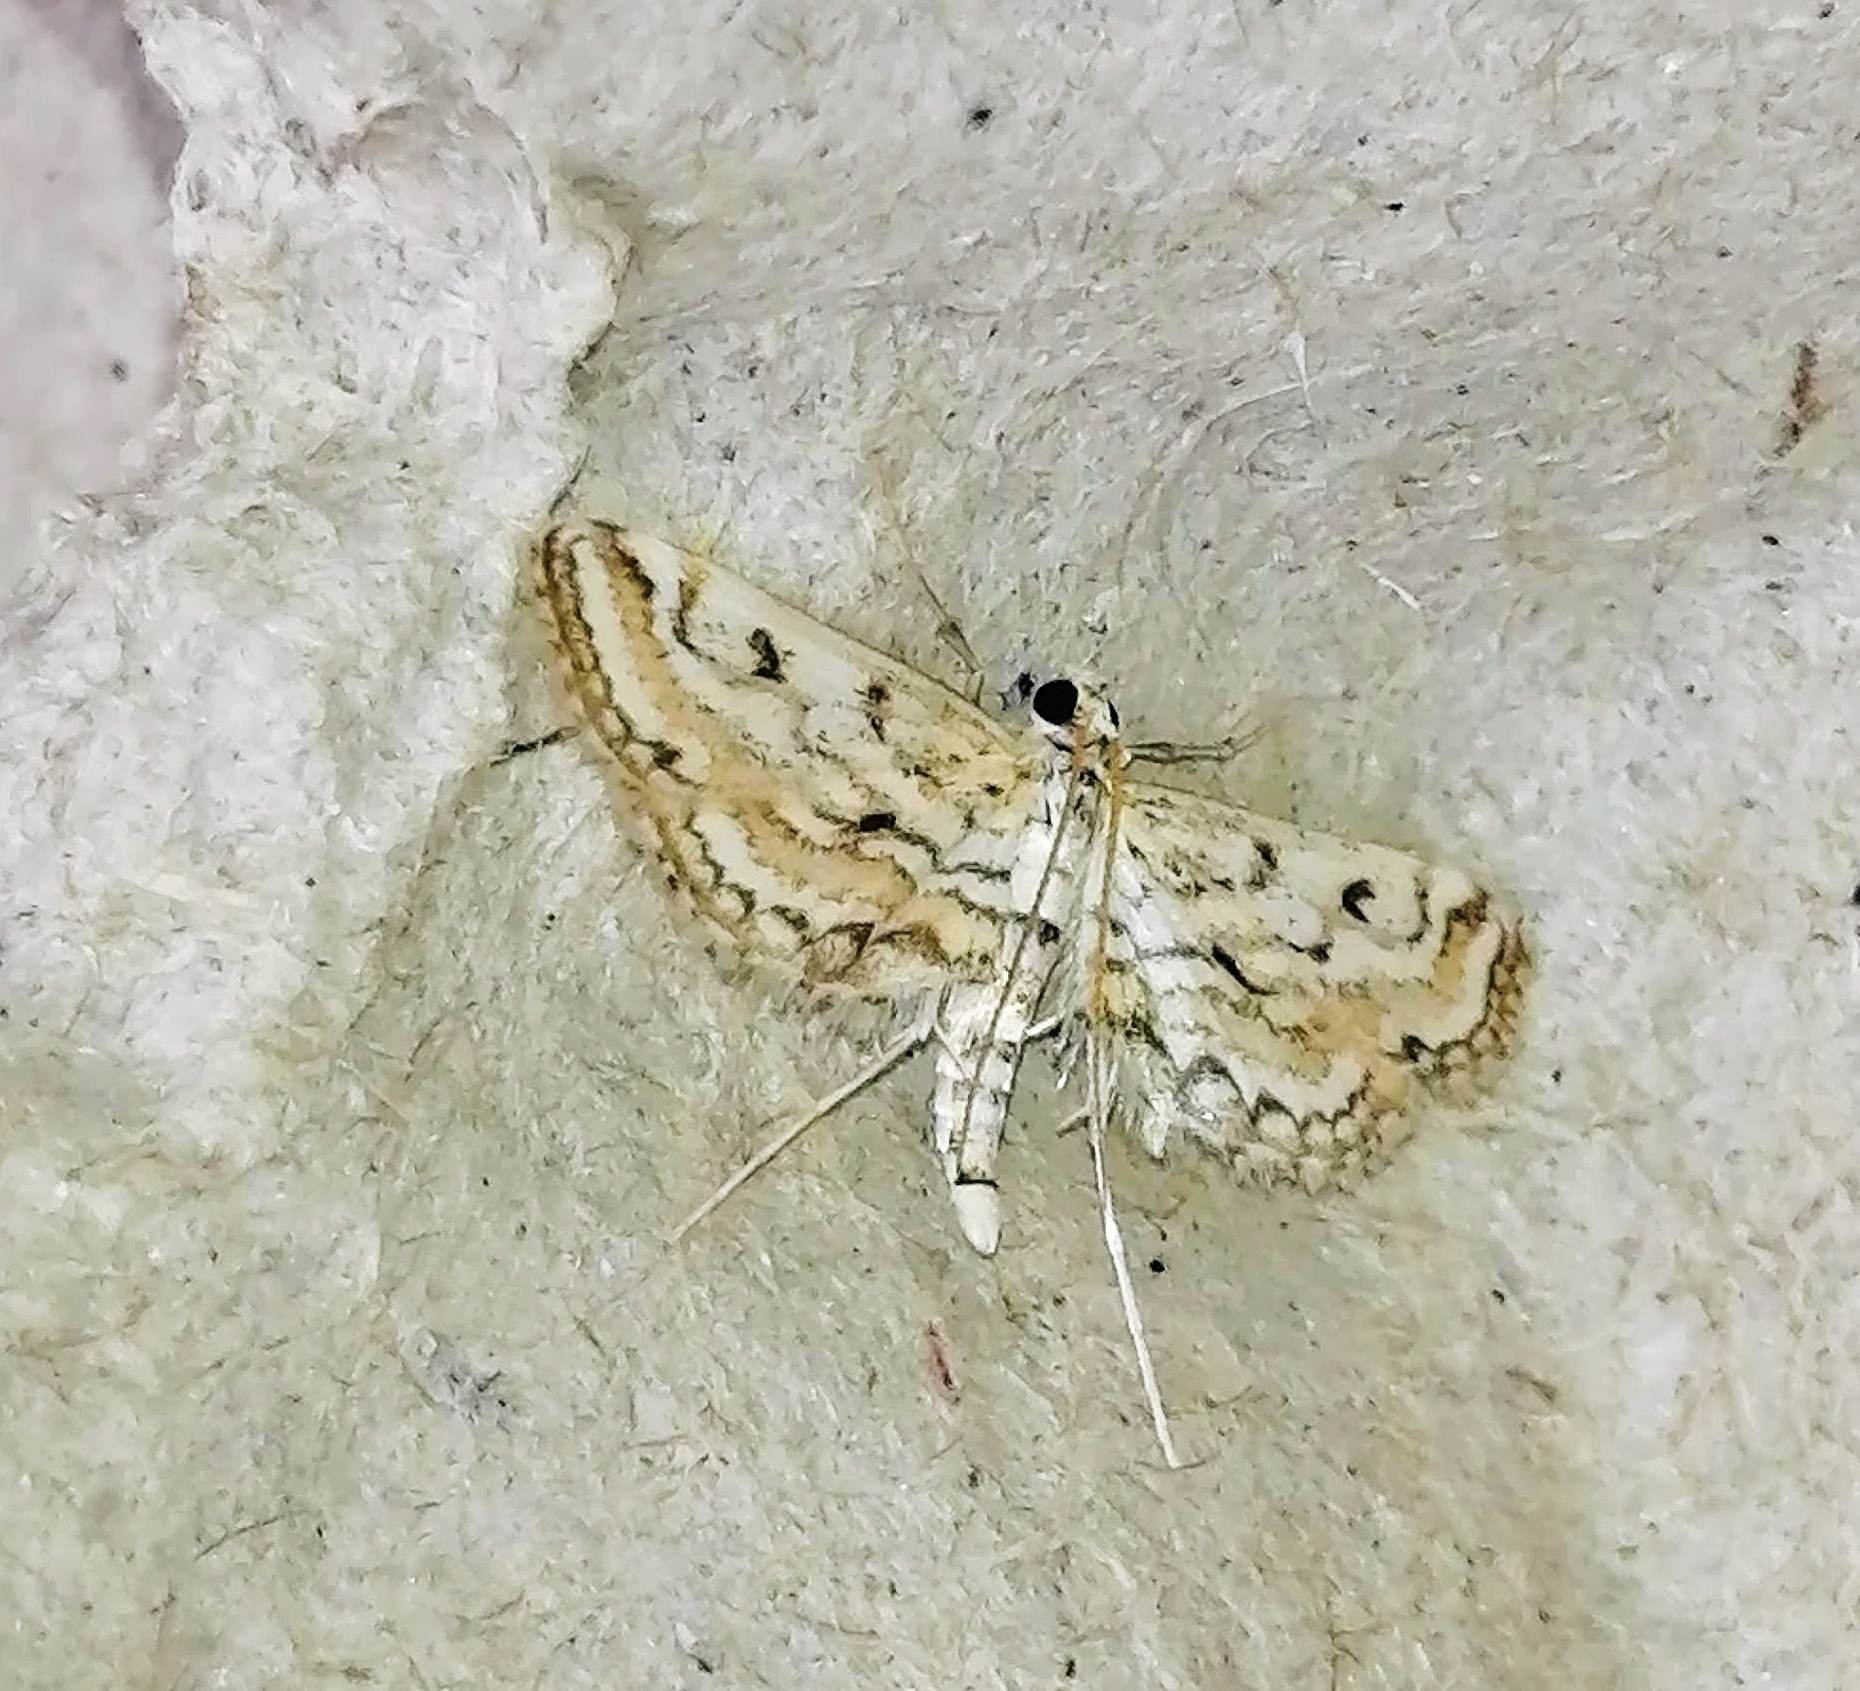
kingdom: Animalia
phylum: Arthropoda
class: Insecta
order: Lepidoptera
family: Crambidae
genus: Parapoynx
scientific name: Parapoynx allionealis
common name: Bladderwort casemaker
